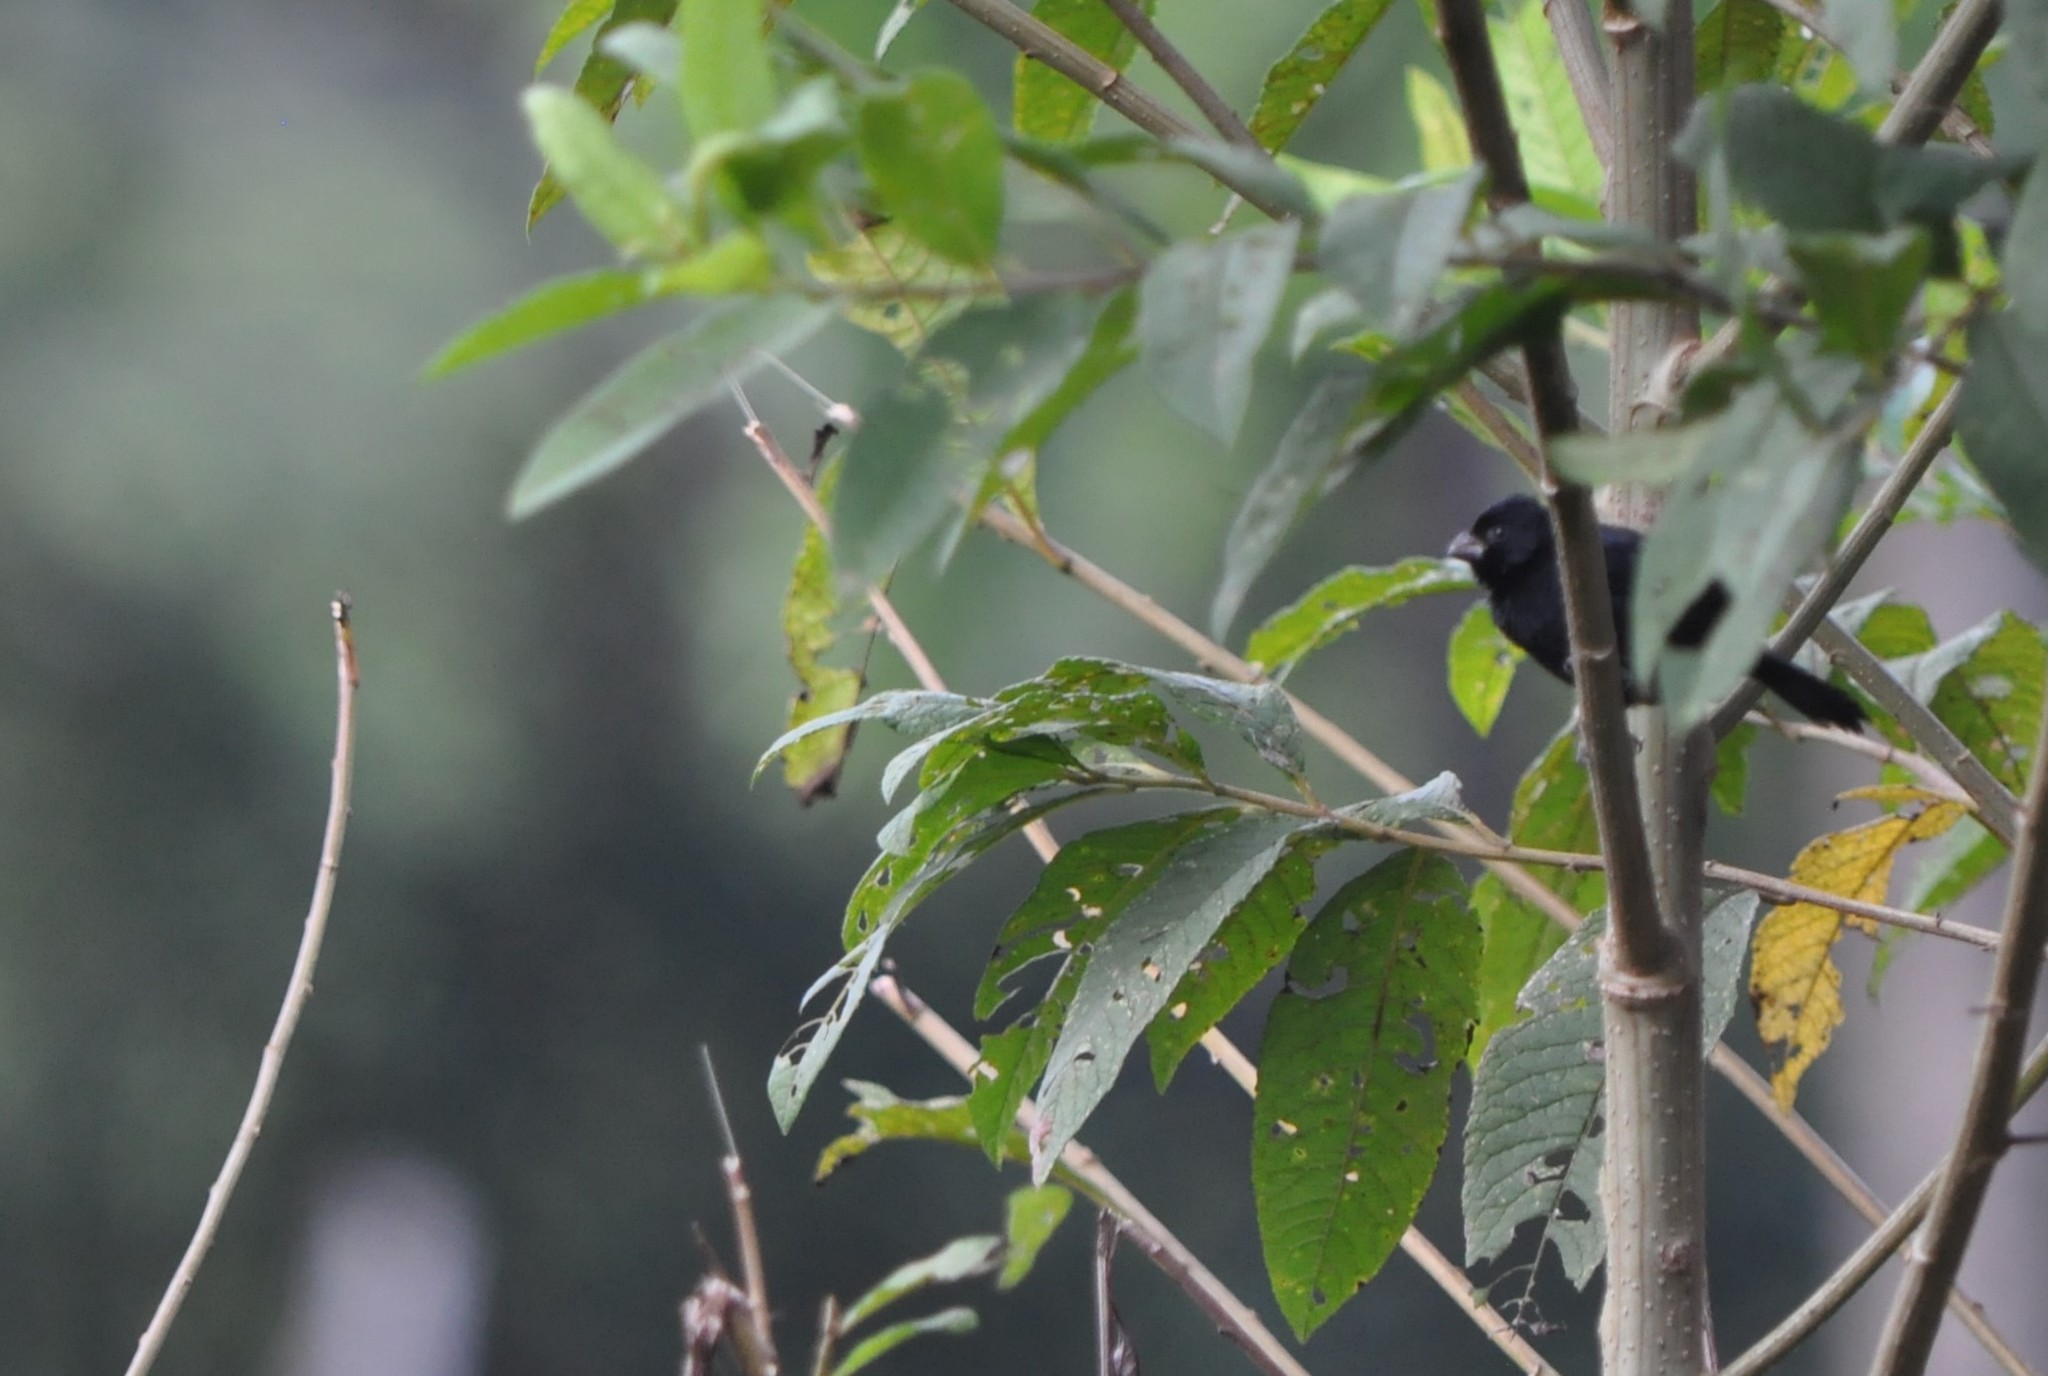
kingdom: Animalia
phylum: Chordata
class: Aves
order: Passeriformes
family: Thraupidae
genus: Sporophila
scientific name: Sporophila corvina
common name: Variable seedeater
